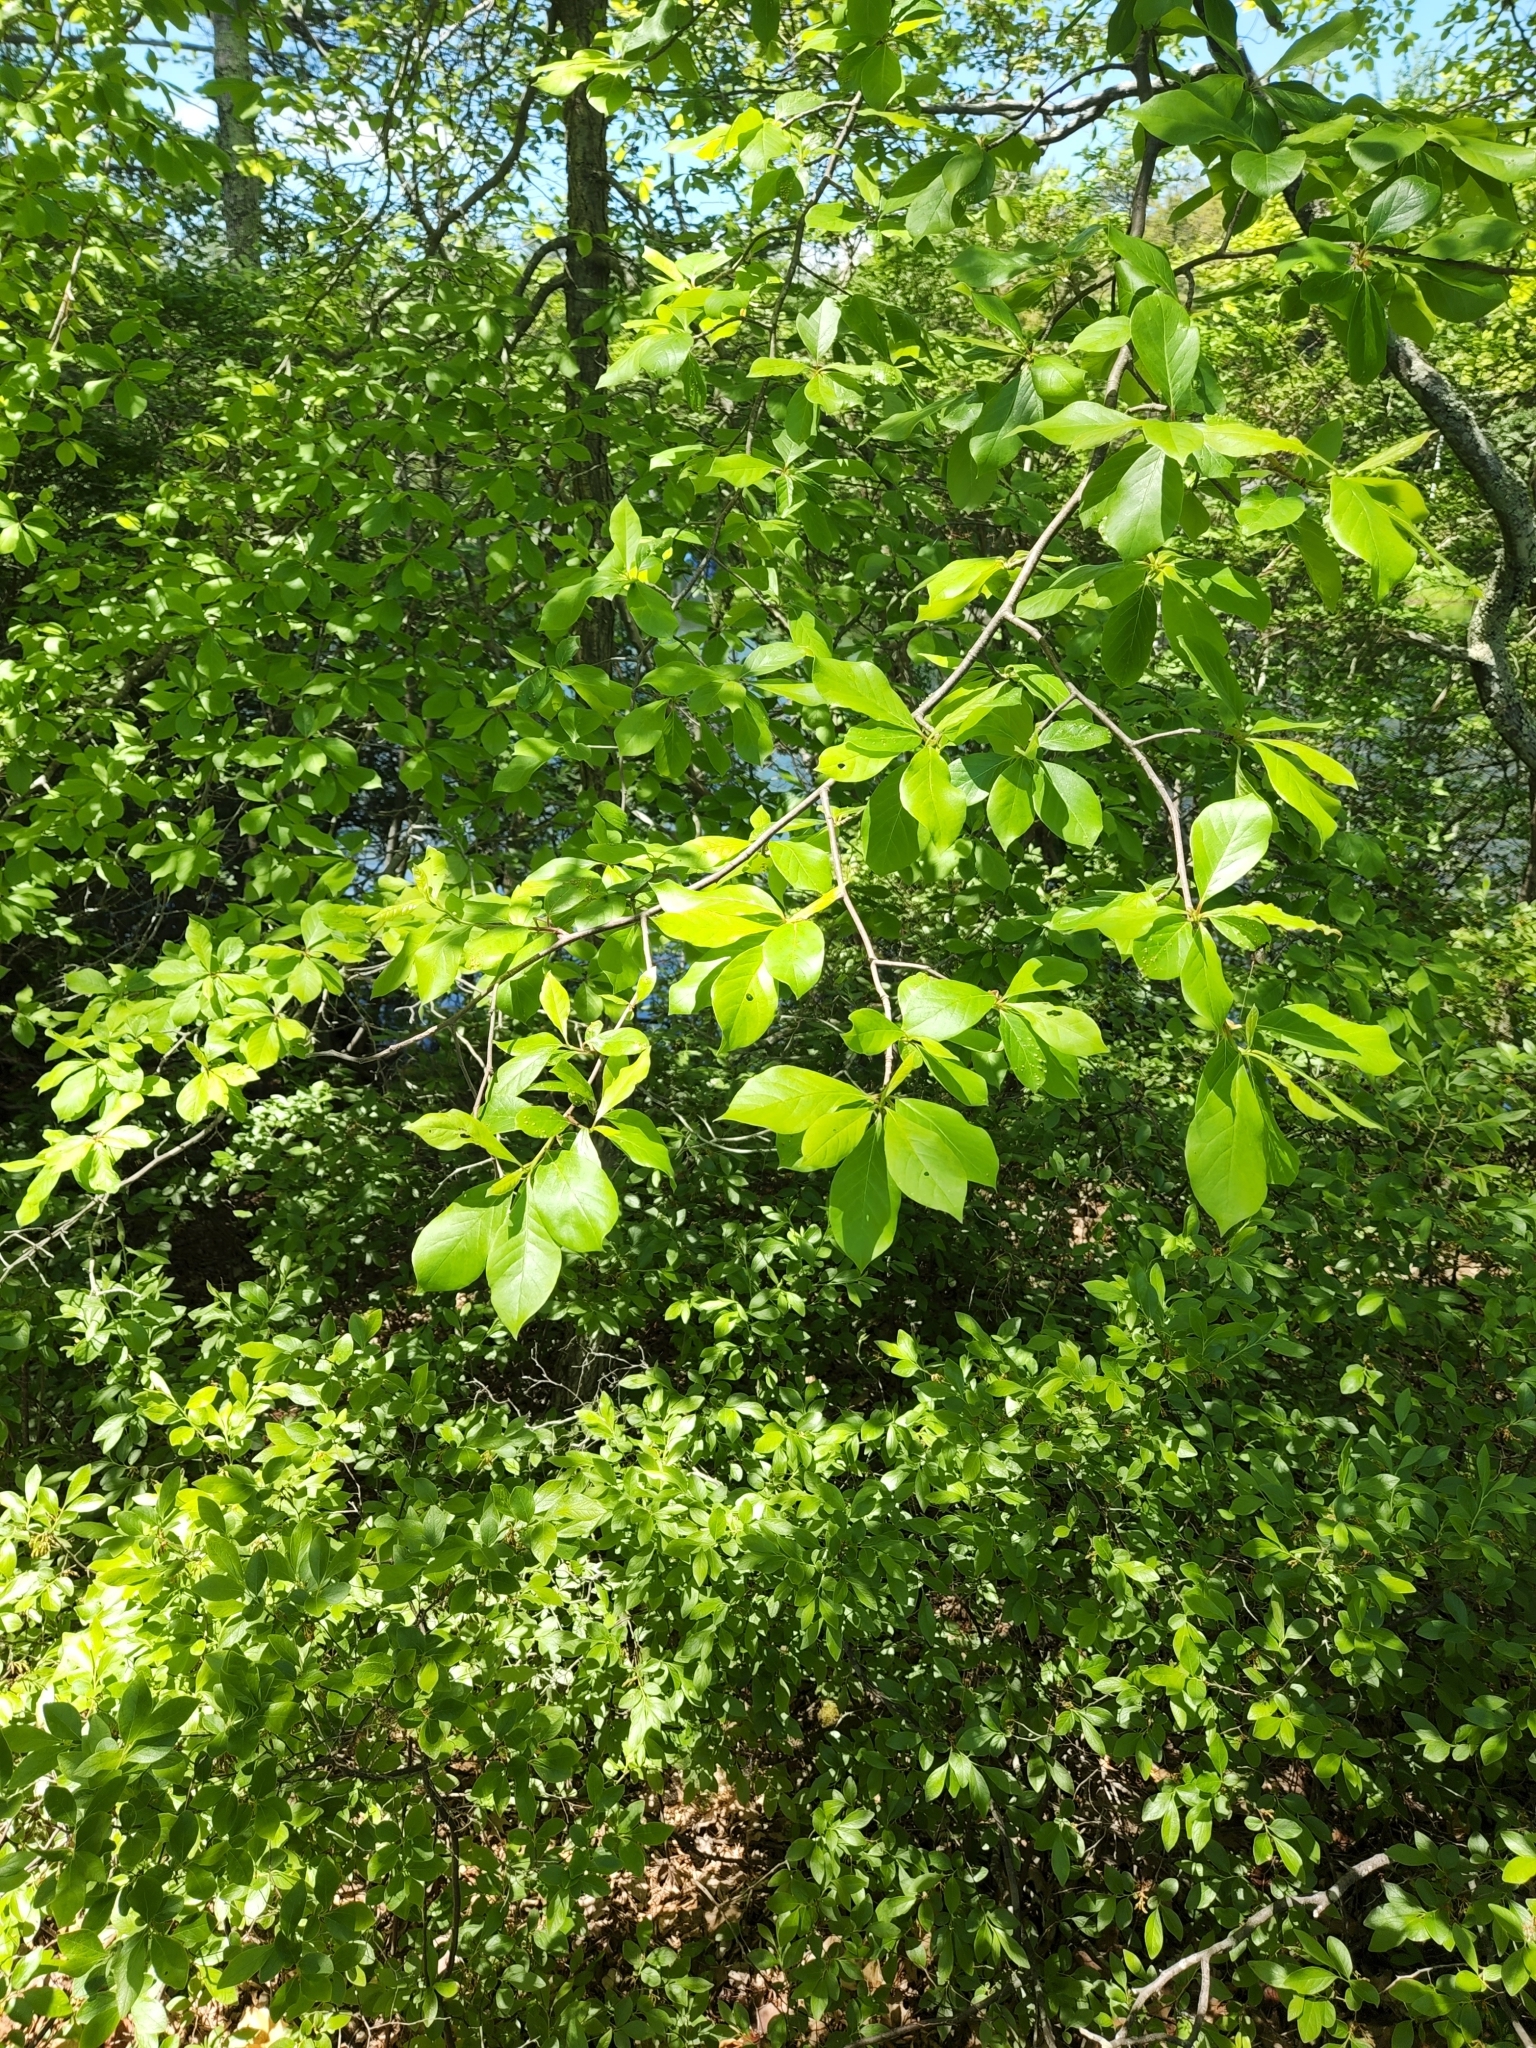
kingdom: Plantae
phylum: Tracheophyta
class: Magnoliopsida
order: Cornales
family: Nyssaceae
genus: Nyssa
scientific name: Nyssa sylvatica
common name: Black tupelo
